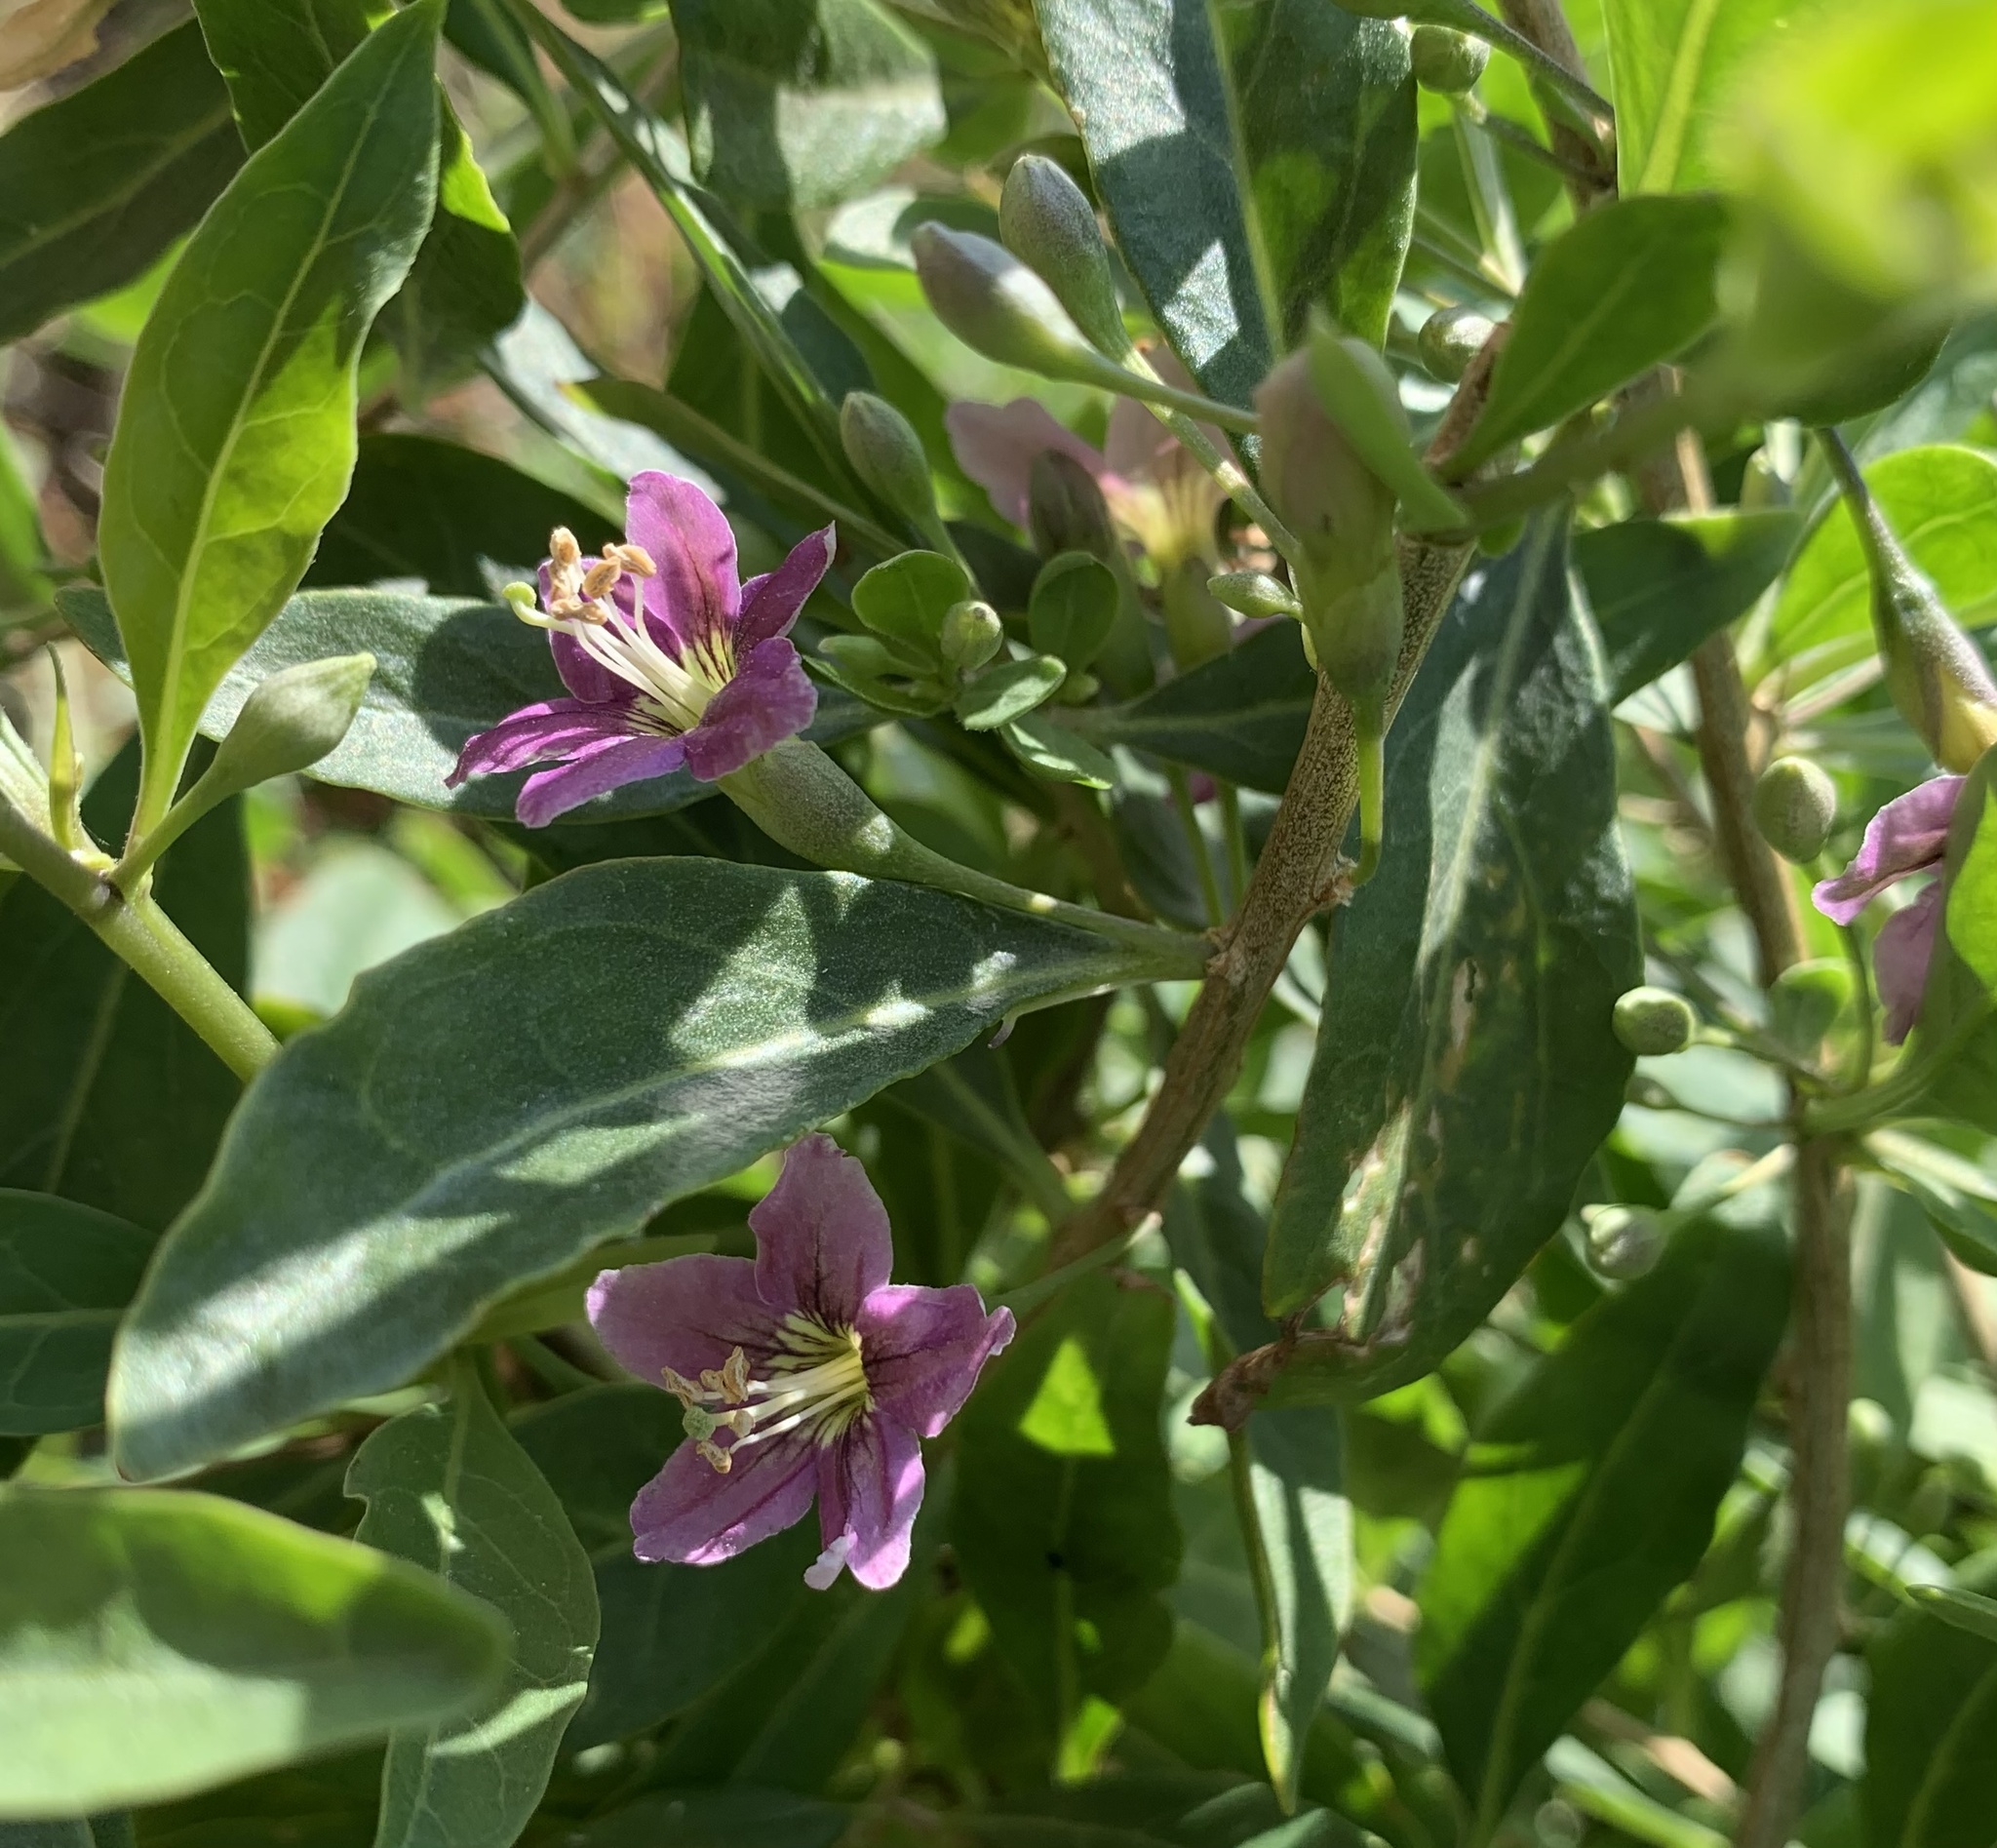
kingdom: Plantae
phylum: Tracheophyta
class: Magnoliopsida
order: Solanales
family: Solanaceae
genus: Lycium
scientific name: Lycium barbarum
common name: Duke of argyll's teaplant
